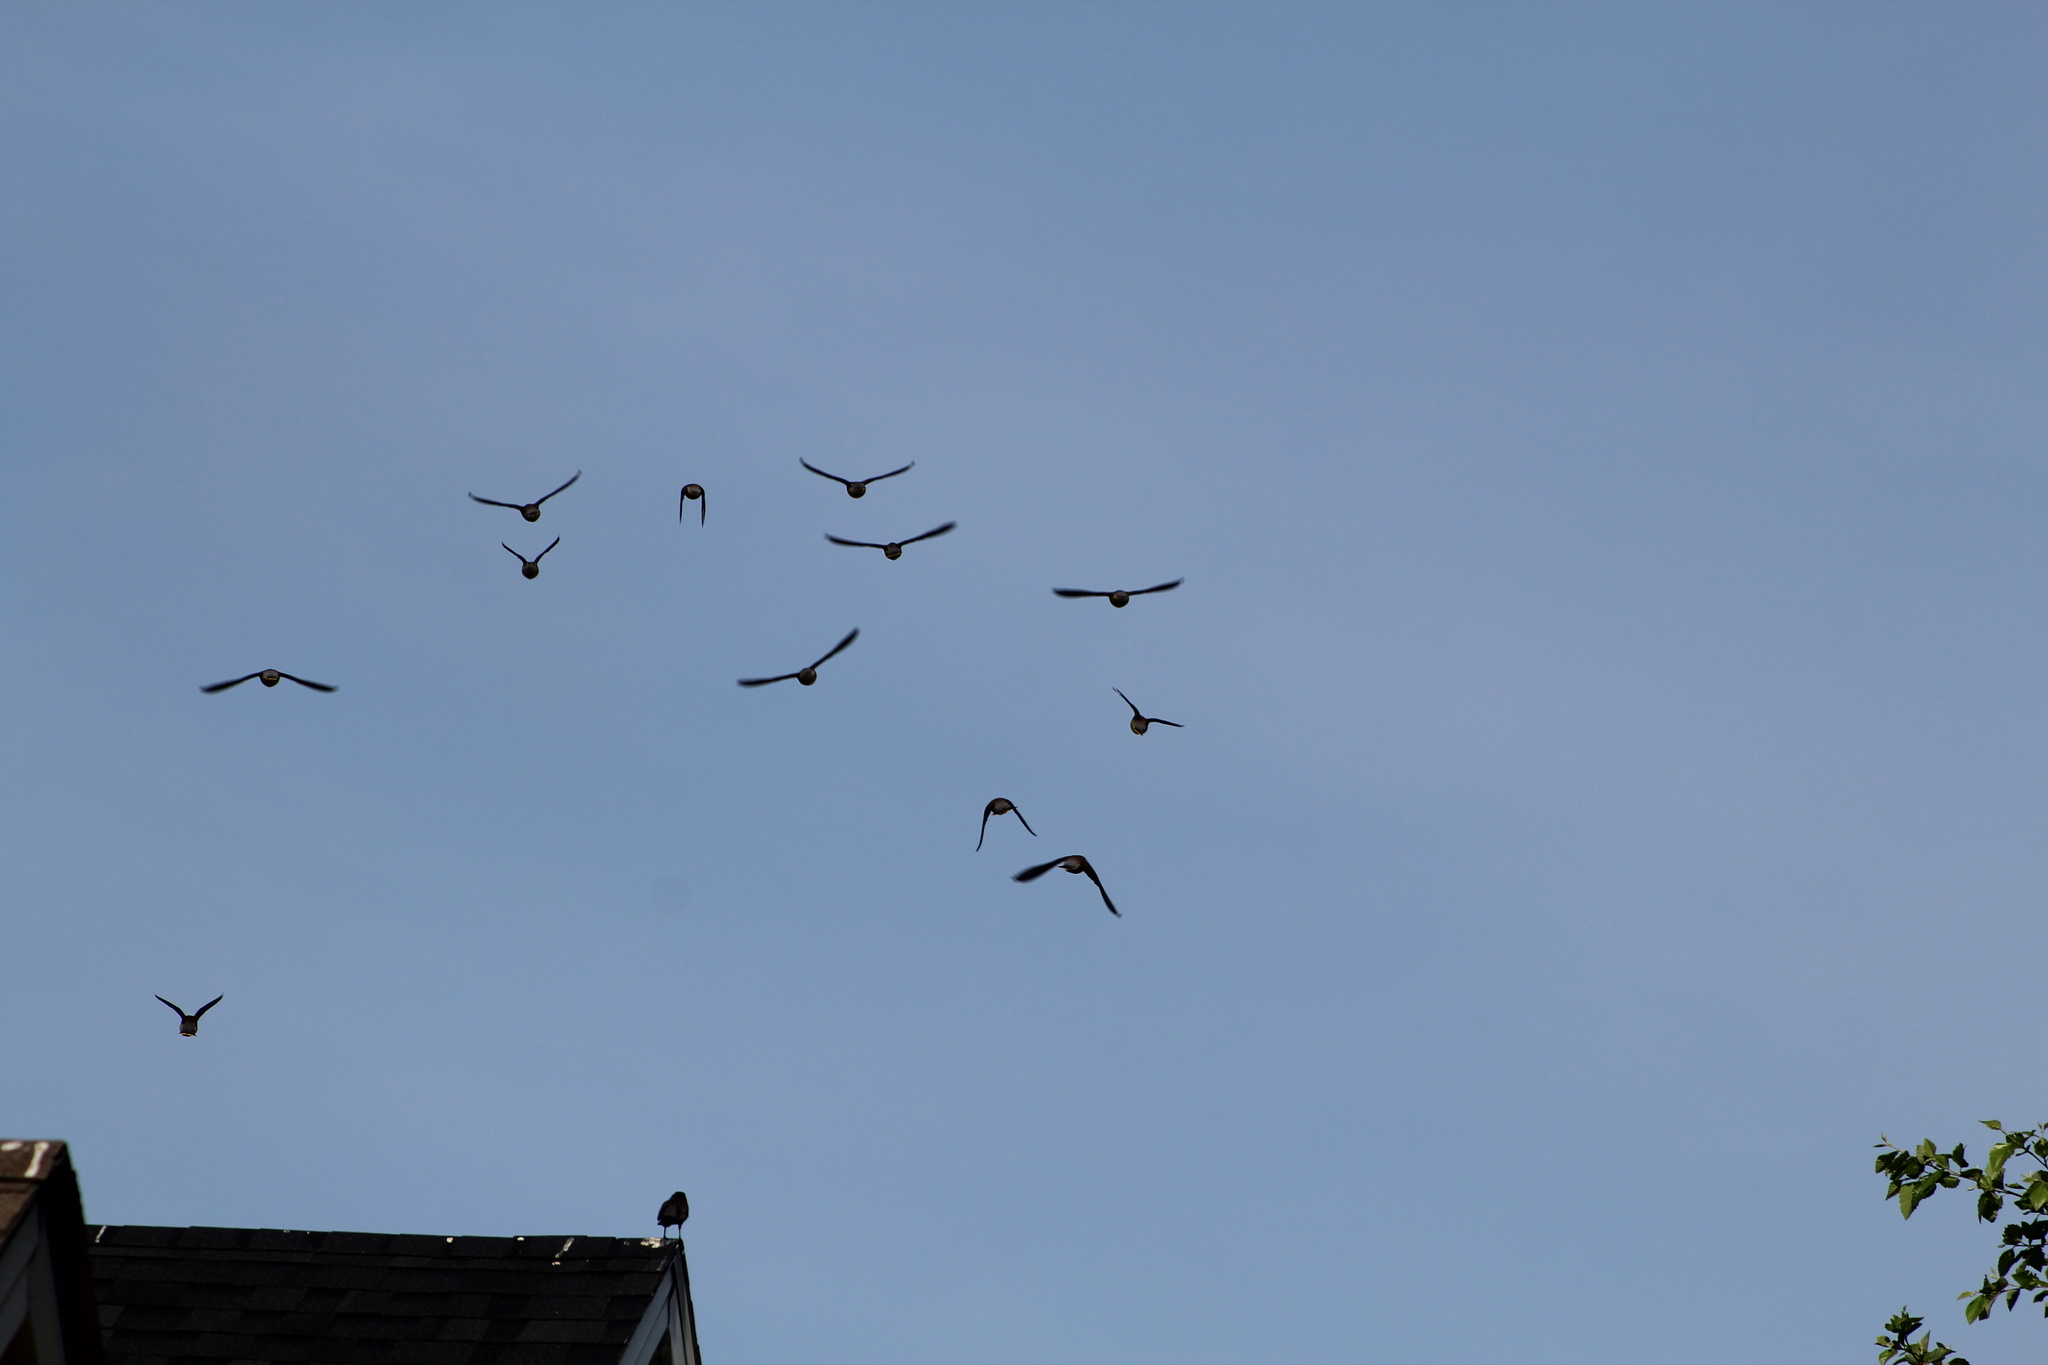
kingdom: Animalia
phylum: Chordata
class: Aves
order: Passeriformes
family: Bombycillidae
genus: Bombycilla
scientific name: Bombycilla cedrorum
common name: Cedar waxwing
